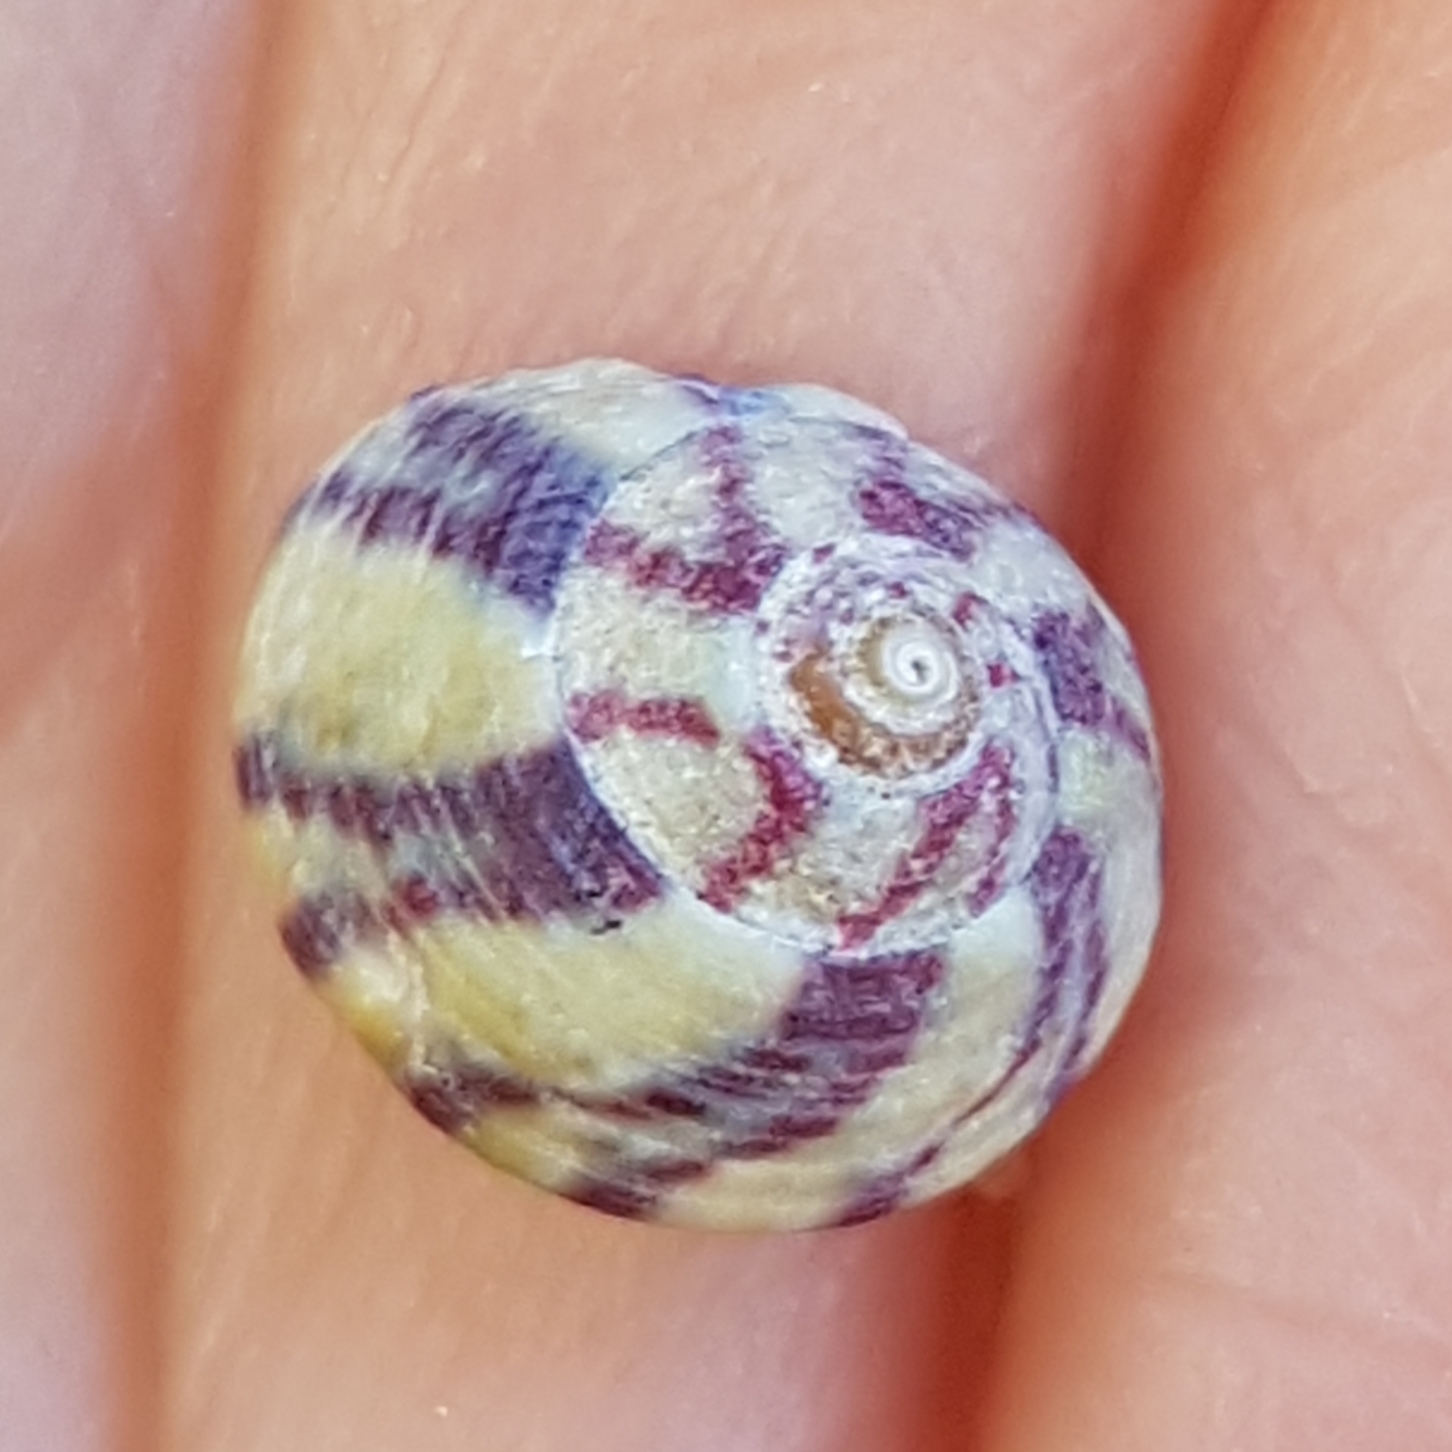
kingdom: Animalia
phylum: Mollusca
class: Gastropoda
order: Trochida
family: Trochidae
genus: Steromphala
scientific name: Steromphala umbilicalis
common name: Flat top shell
